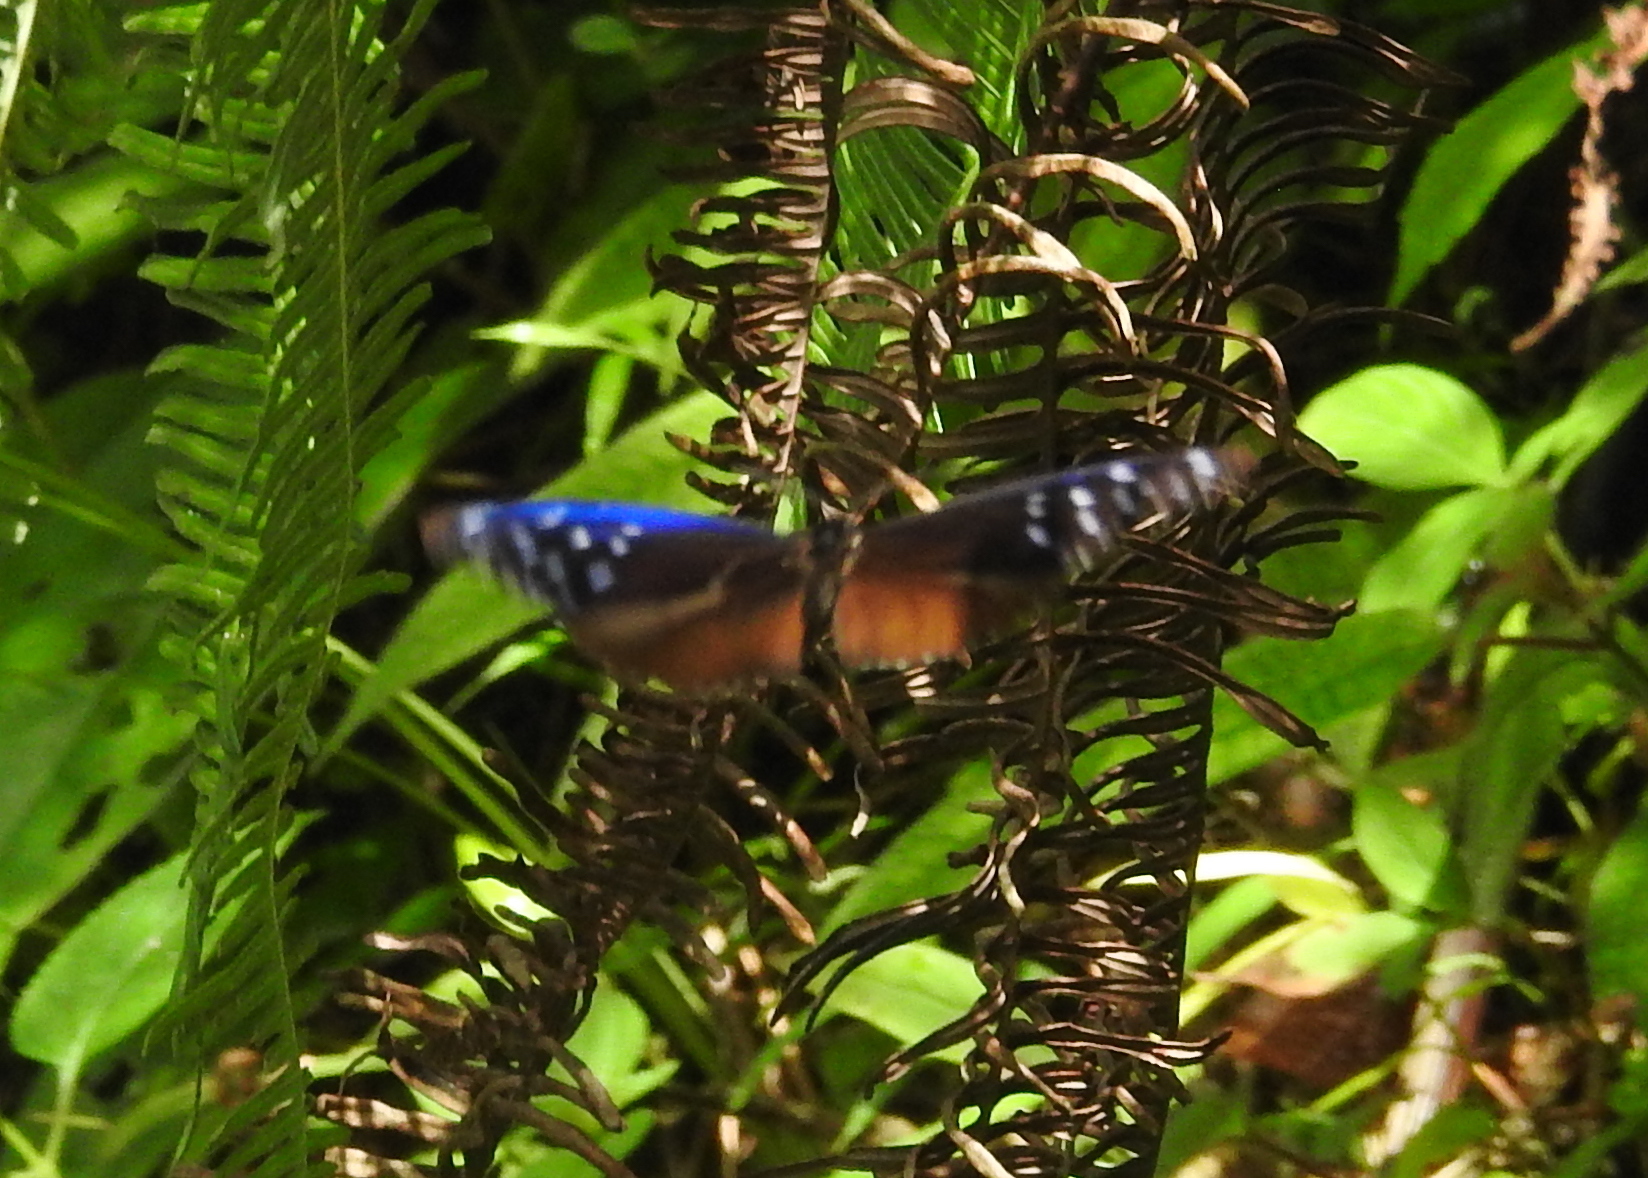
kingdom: Animalia
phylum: Arthropoda
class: Insecta
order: Lepidoptera
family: Nymphalidae
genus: Euploea
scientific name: Euploea mulciber
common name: Striped blue crow butterfly
